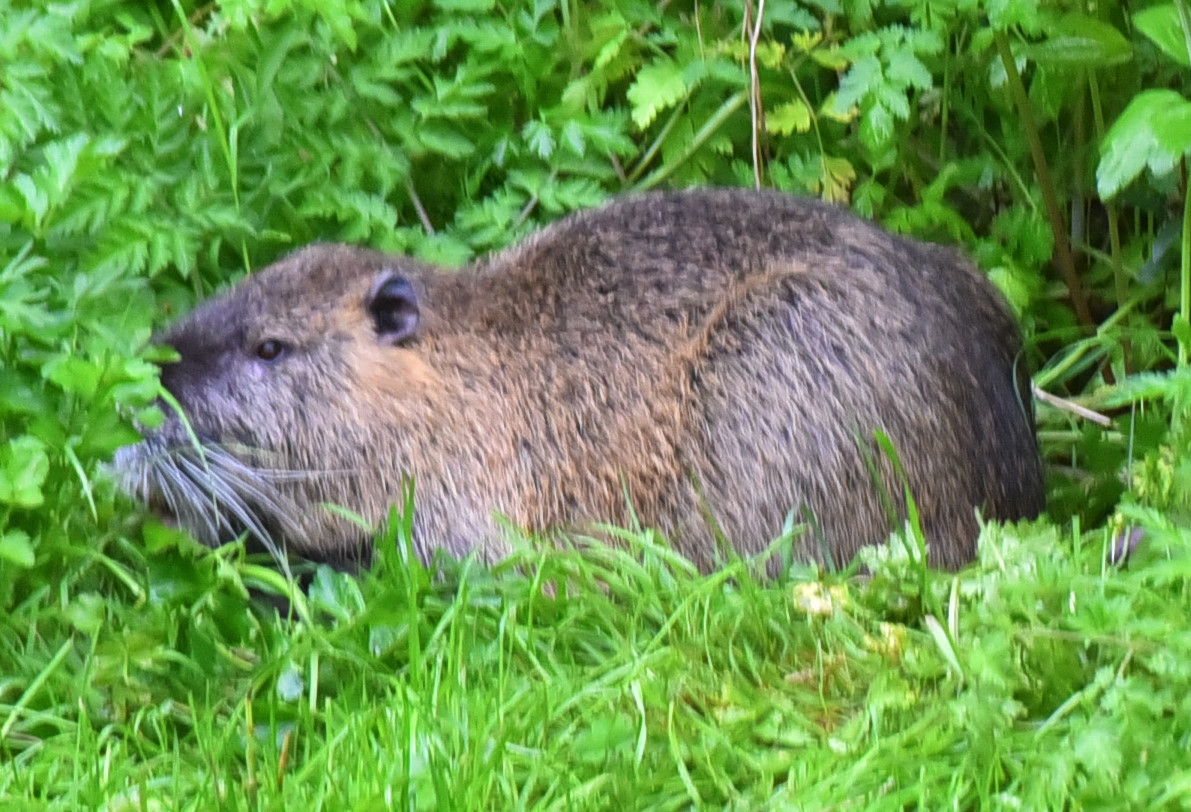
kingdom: Animalia
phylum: Chordata
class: Mammalia
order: Rodentia
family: Myocastoridae
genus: Myocastor
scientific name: Myocastor coypus
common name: Coypu
